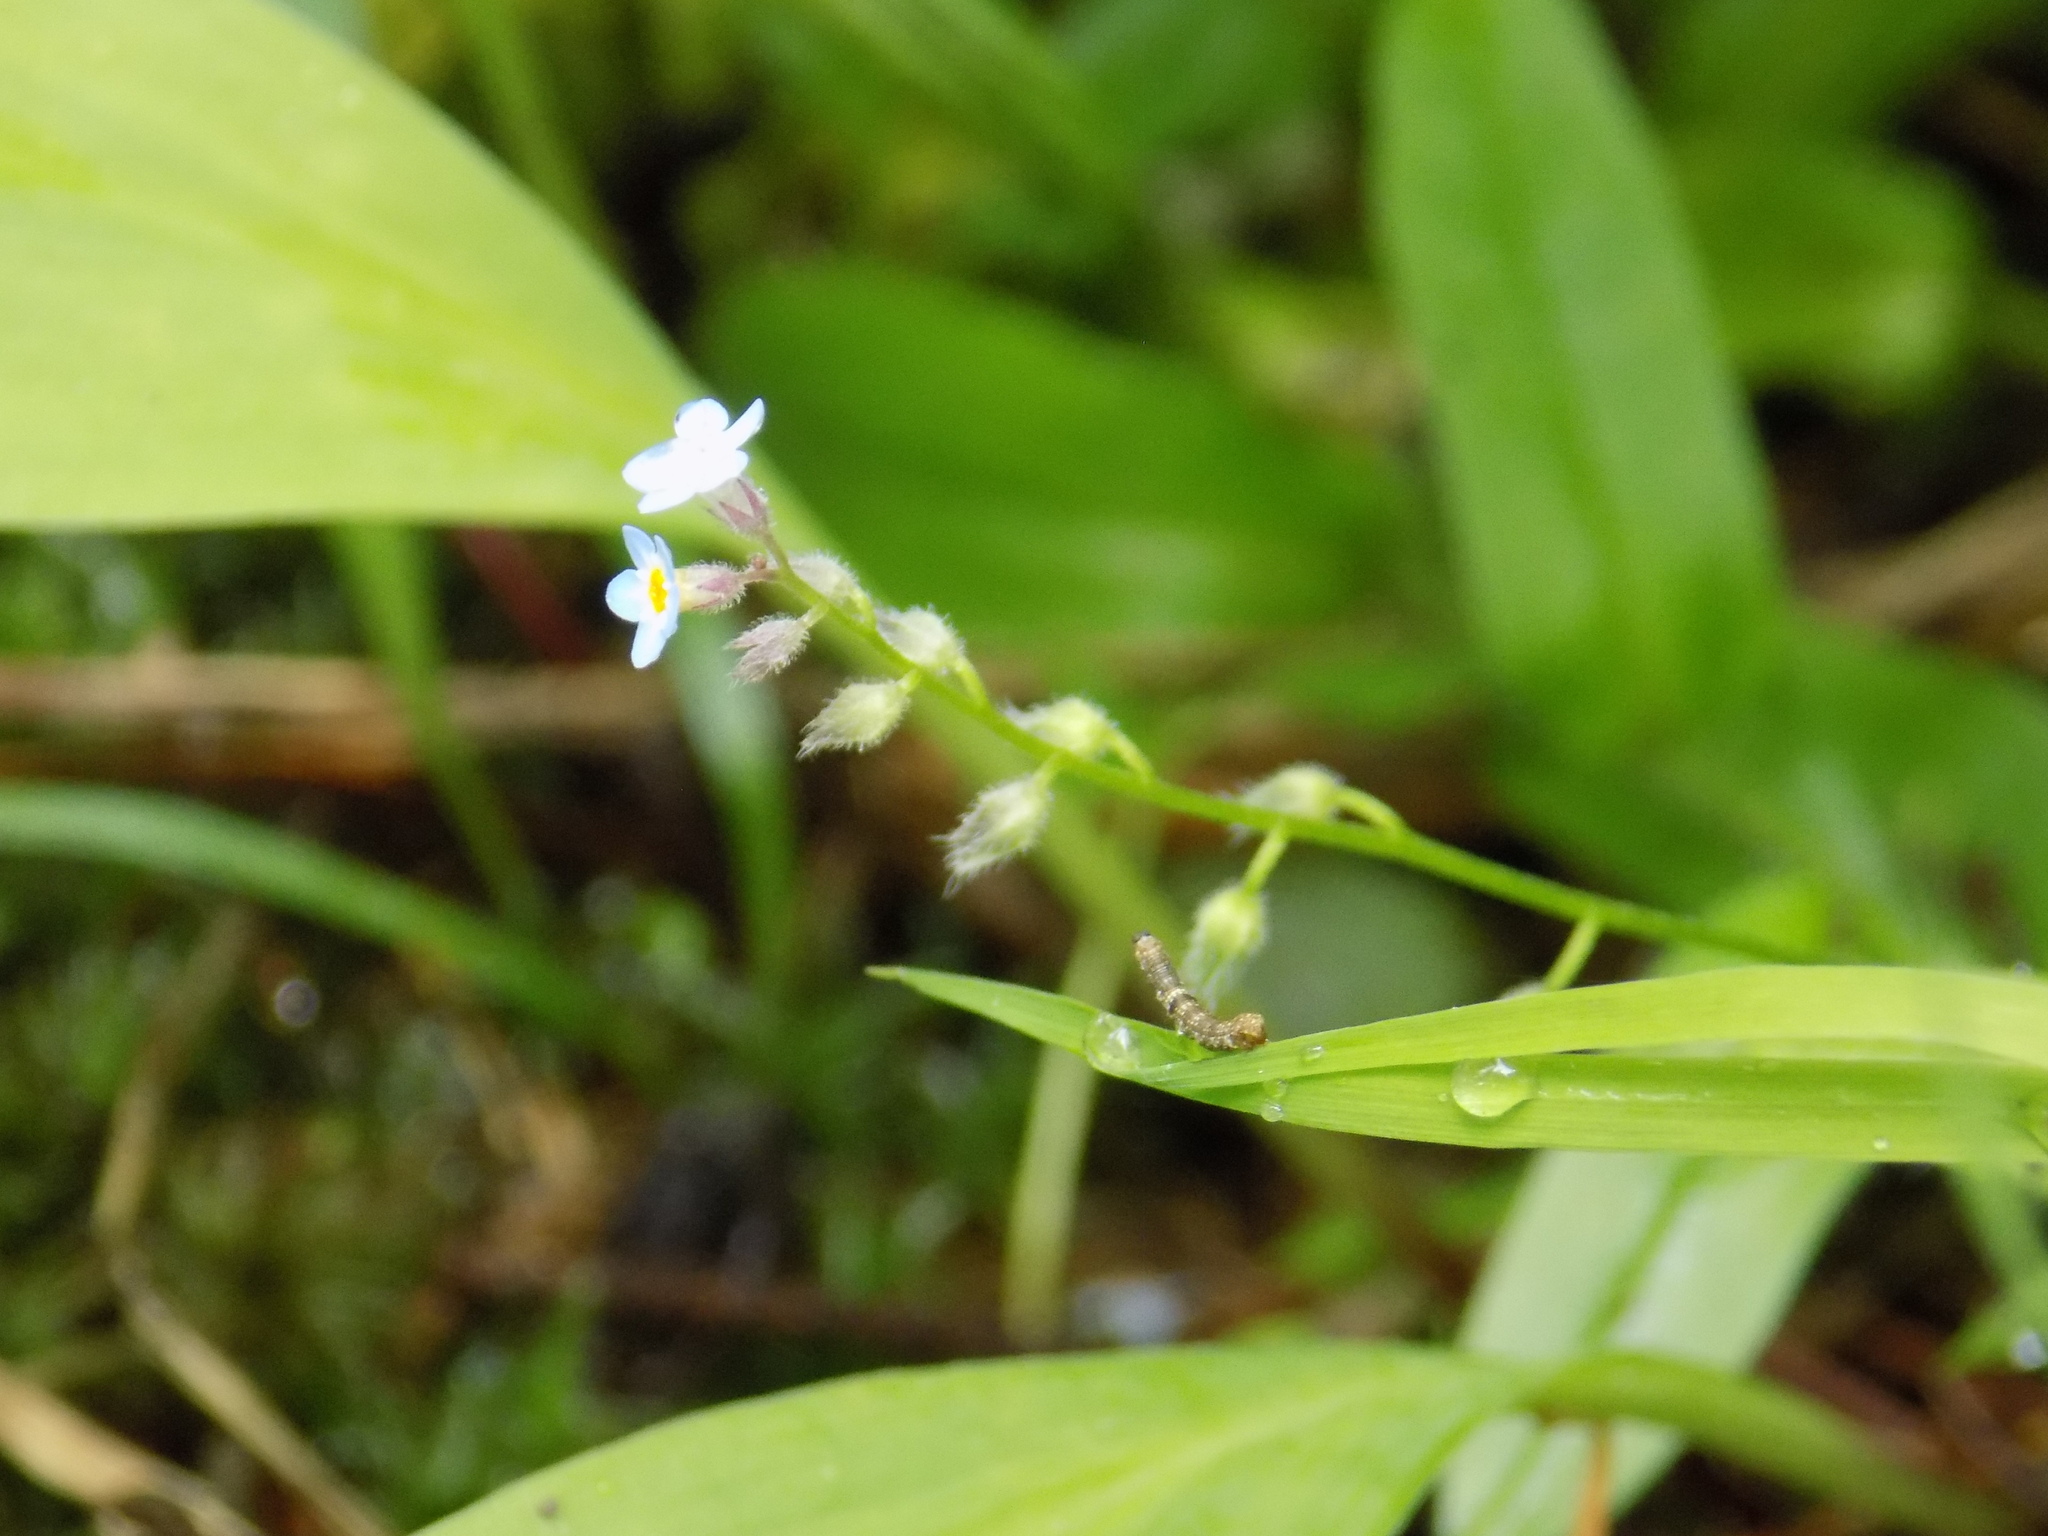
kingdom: Plantae
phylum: Tracheophyta
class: Magnoliopsida
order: Boraginales
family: Boraginaceae
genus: Myosotis
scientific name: Myosotis arvensis
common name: Field forget-me-not
